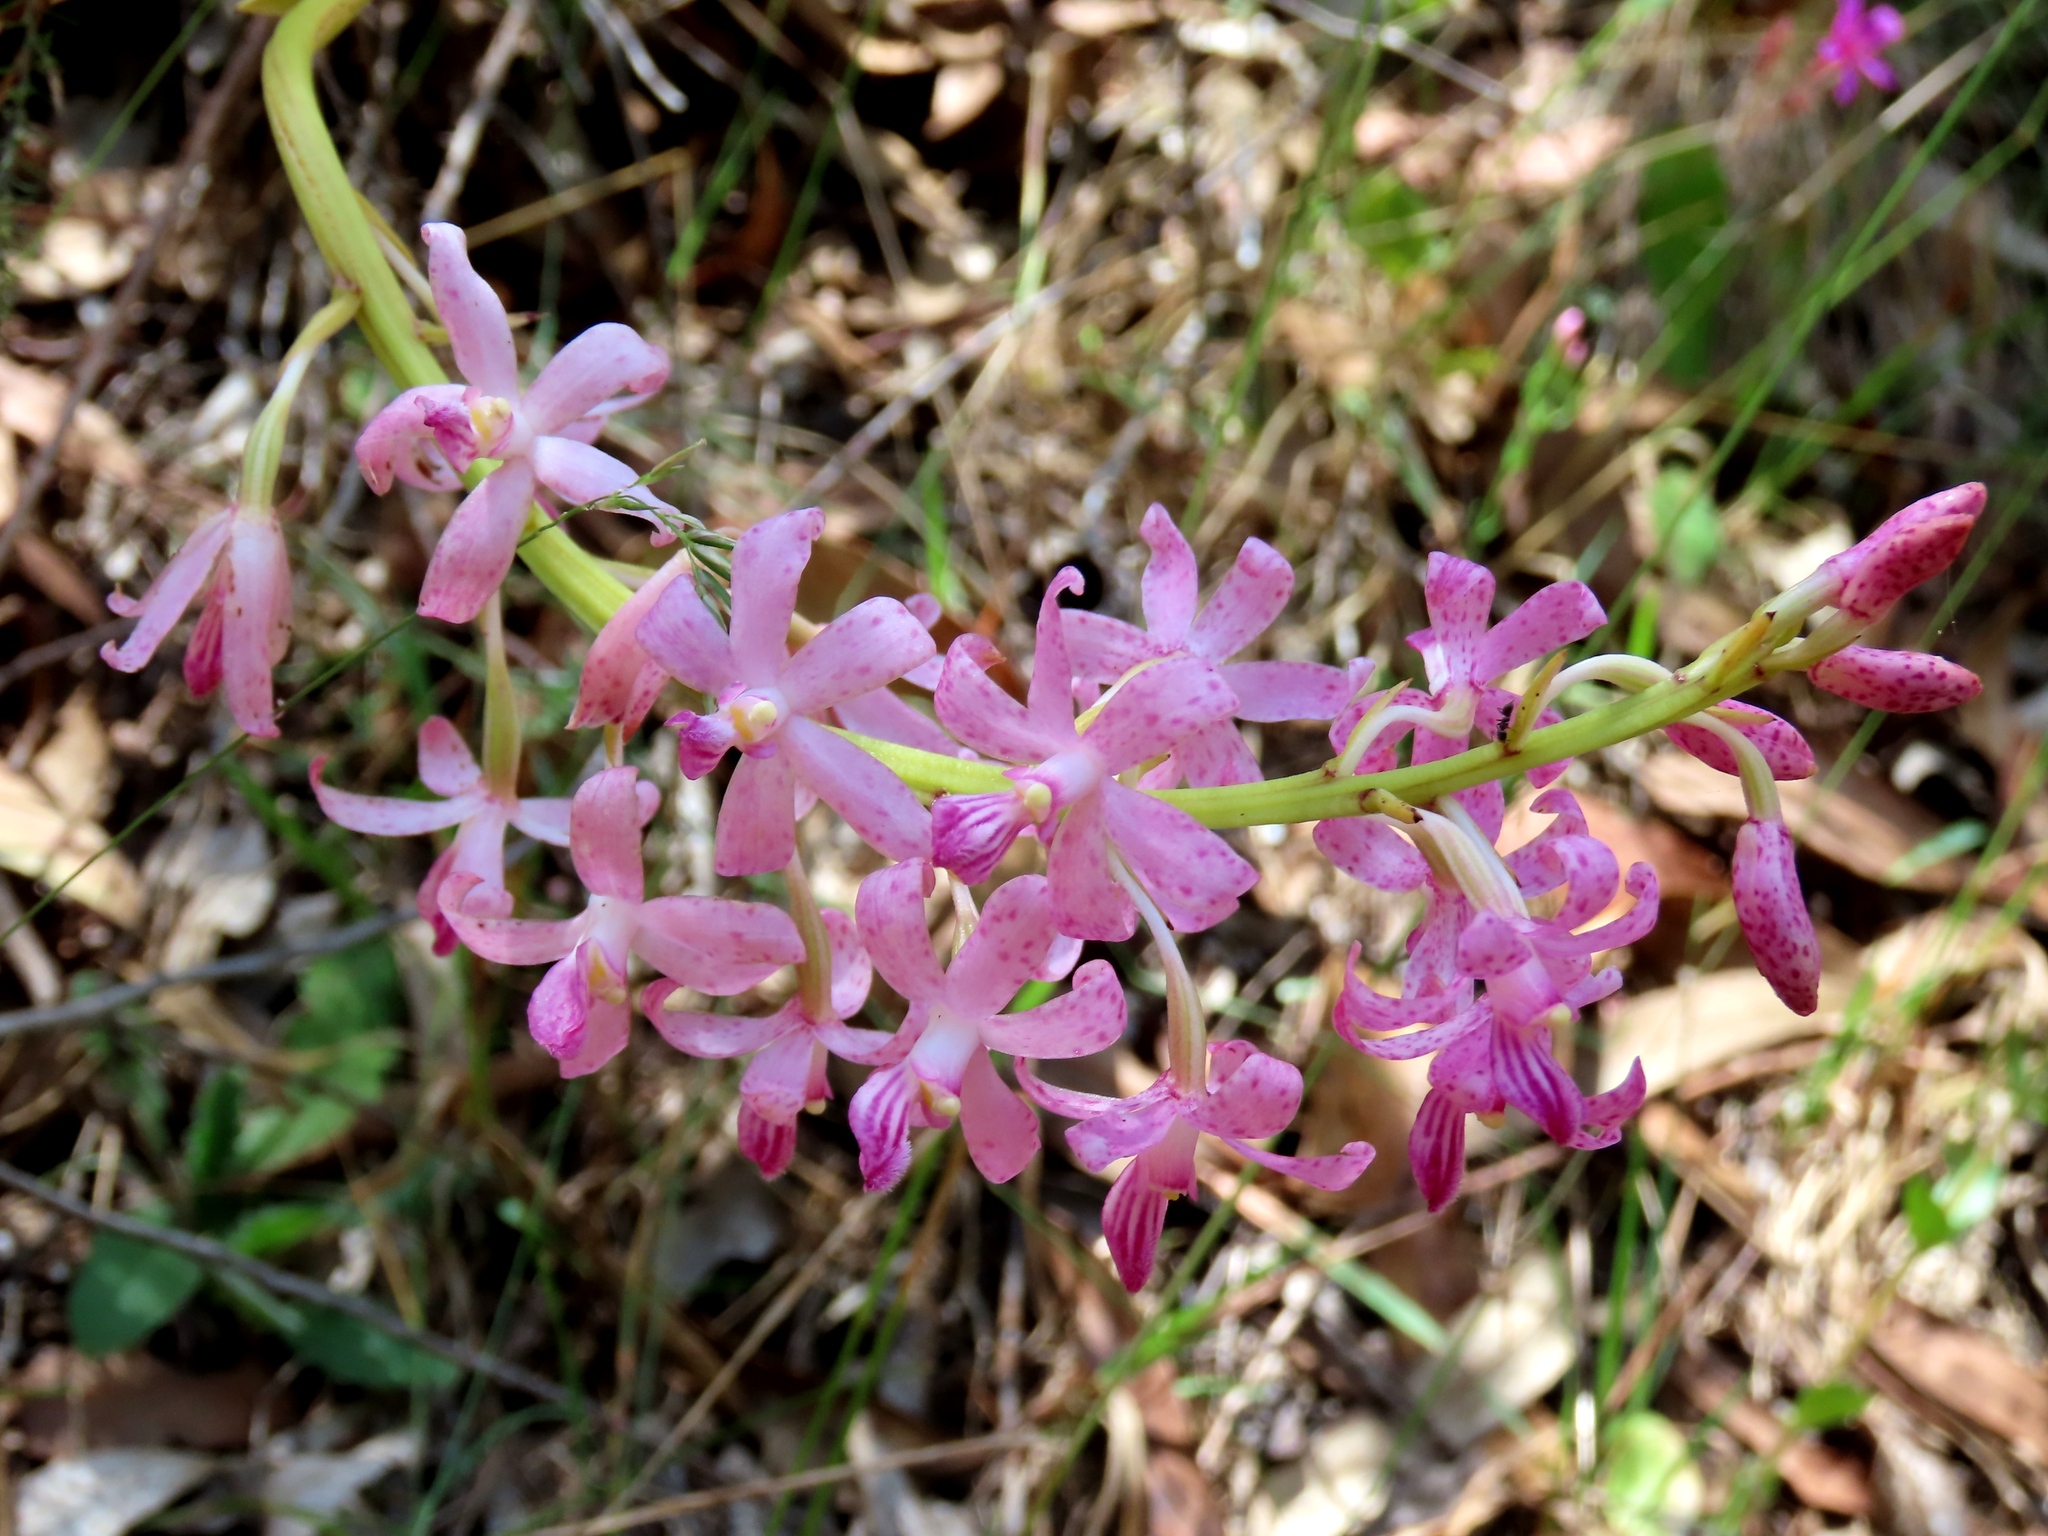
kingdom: Plantae
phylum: Tracheophyta
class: Liliopsida
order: Asparagales
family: Orchidaceae
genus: Dipodium
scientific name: Dipodium roseum
